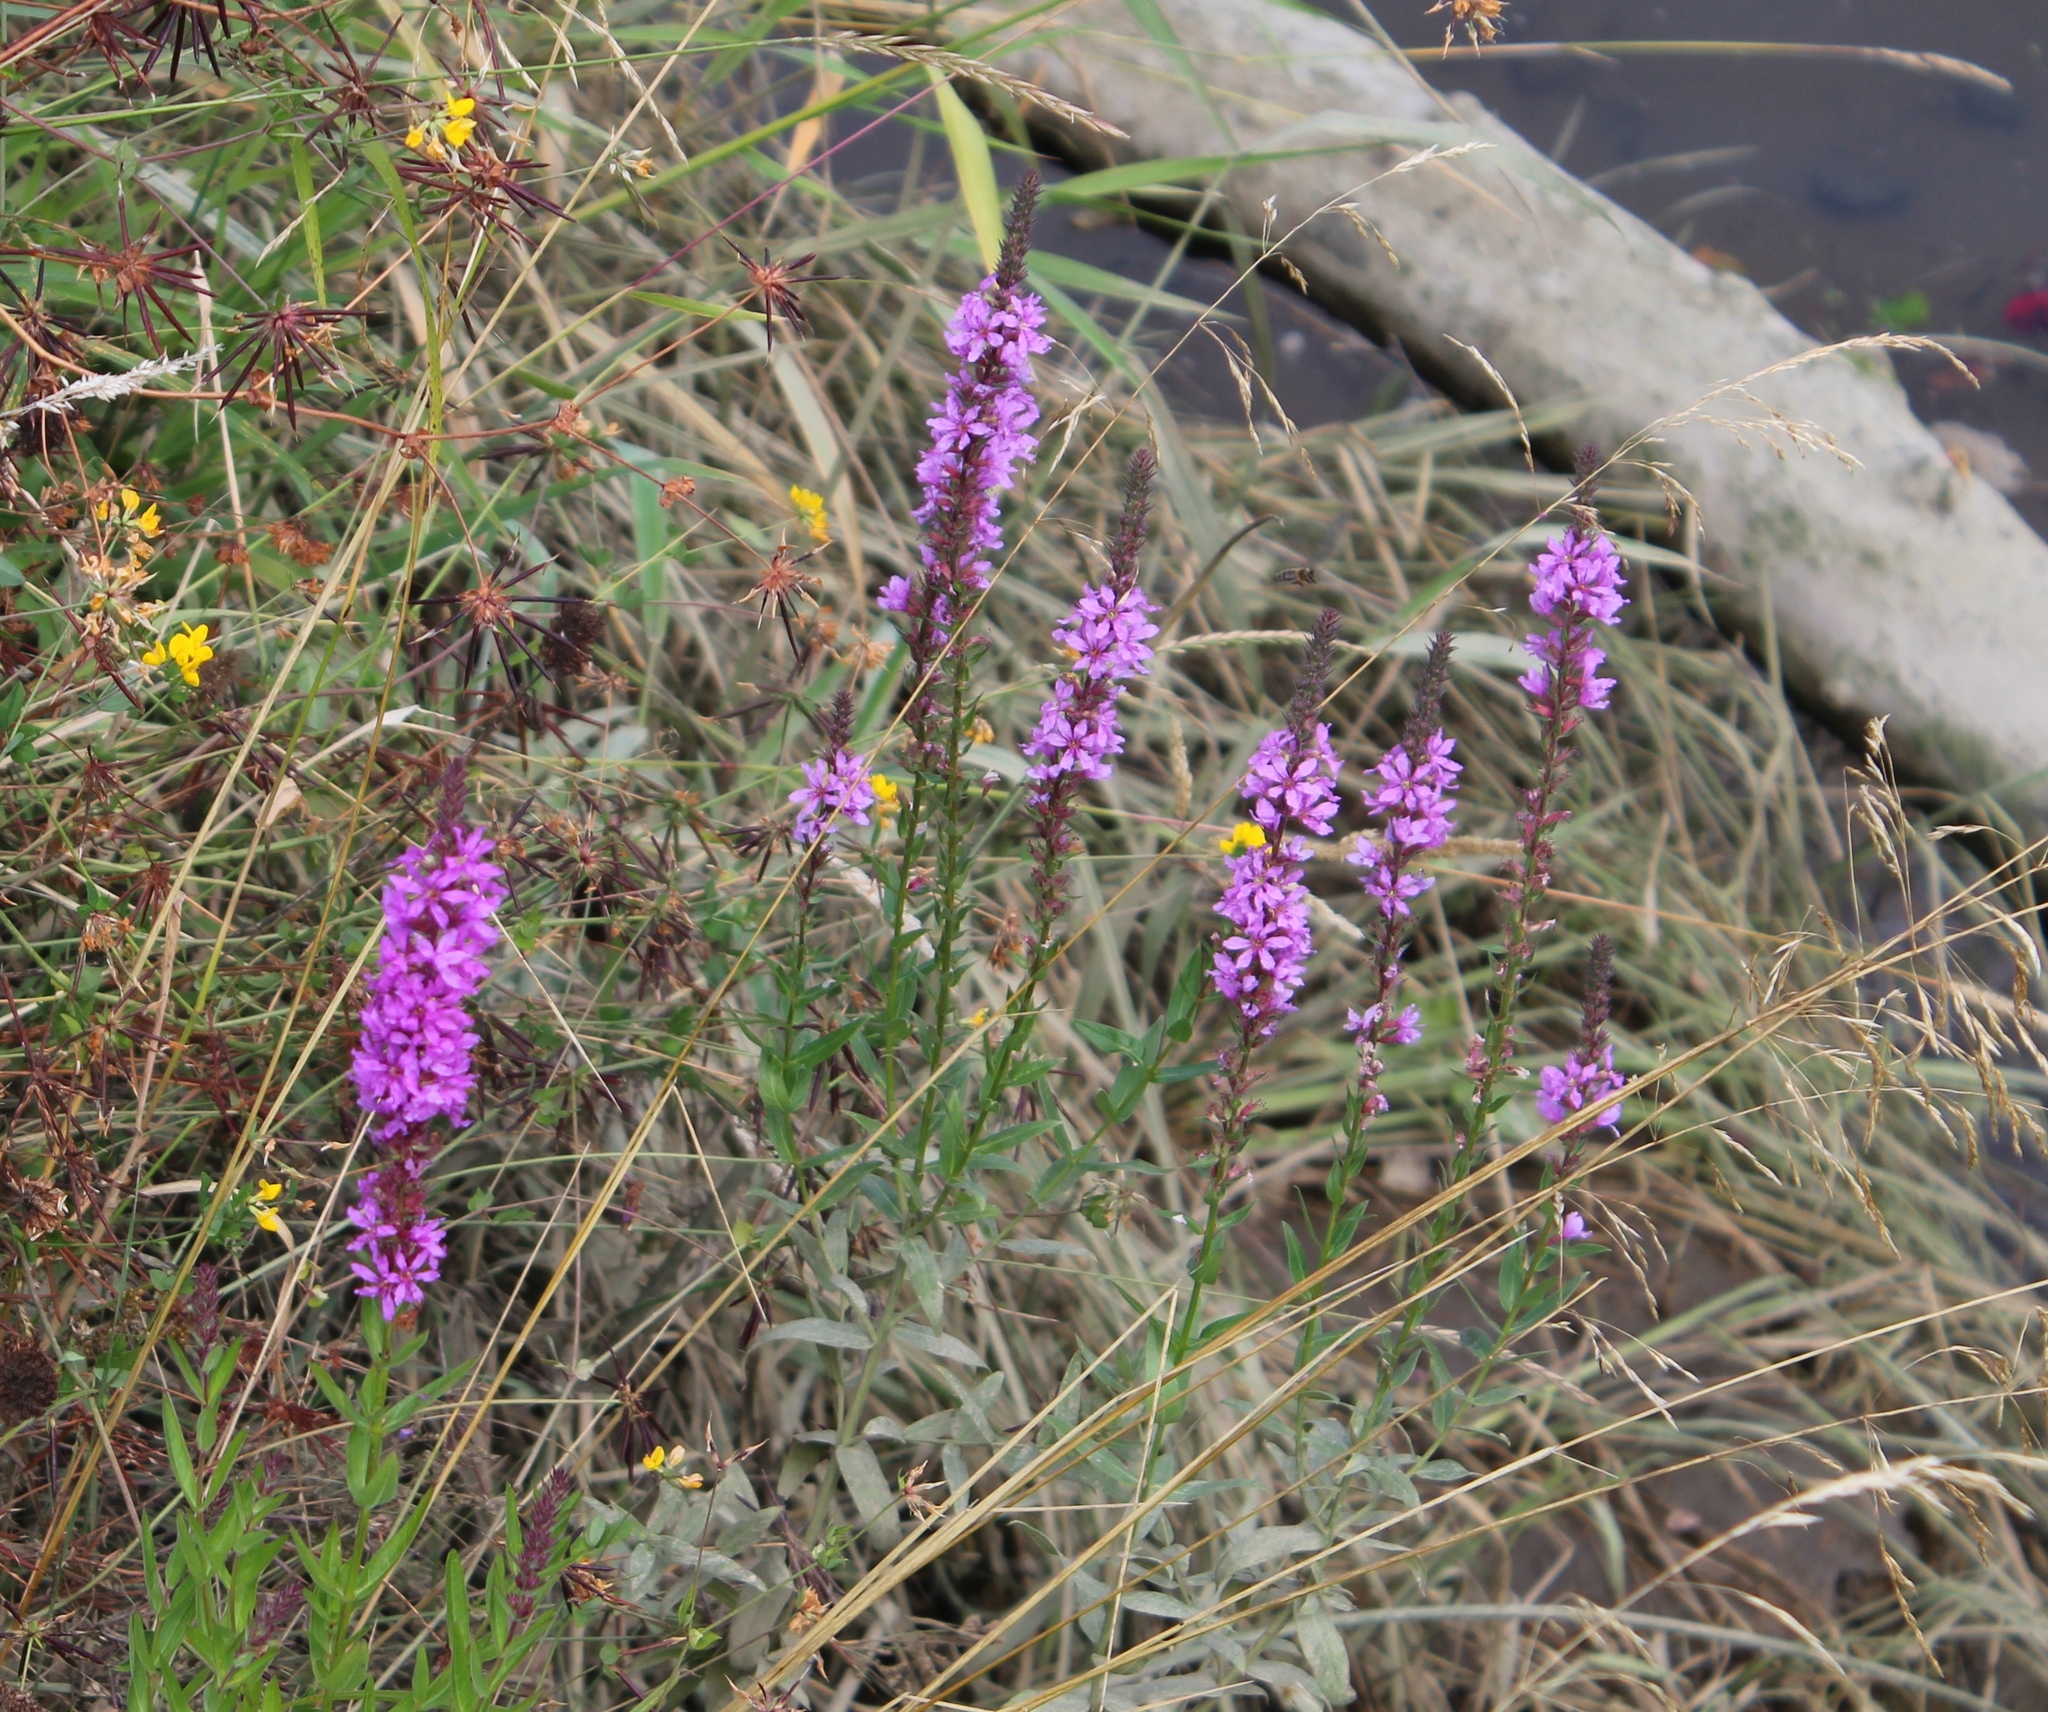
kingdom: Plantae
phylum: Tracheophyta
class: Magnoliopsida
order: Myrtales
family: Lythraceae
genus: Lythrum
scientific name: Lythrum salicaria
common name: Purple loosestrife
